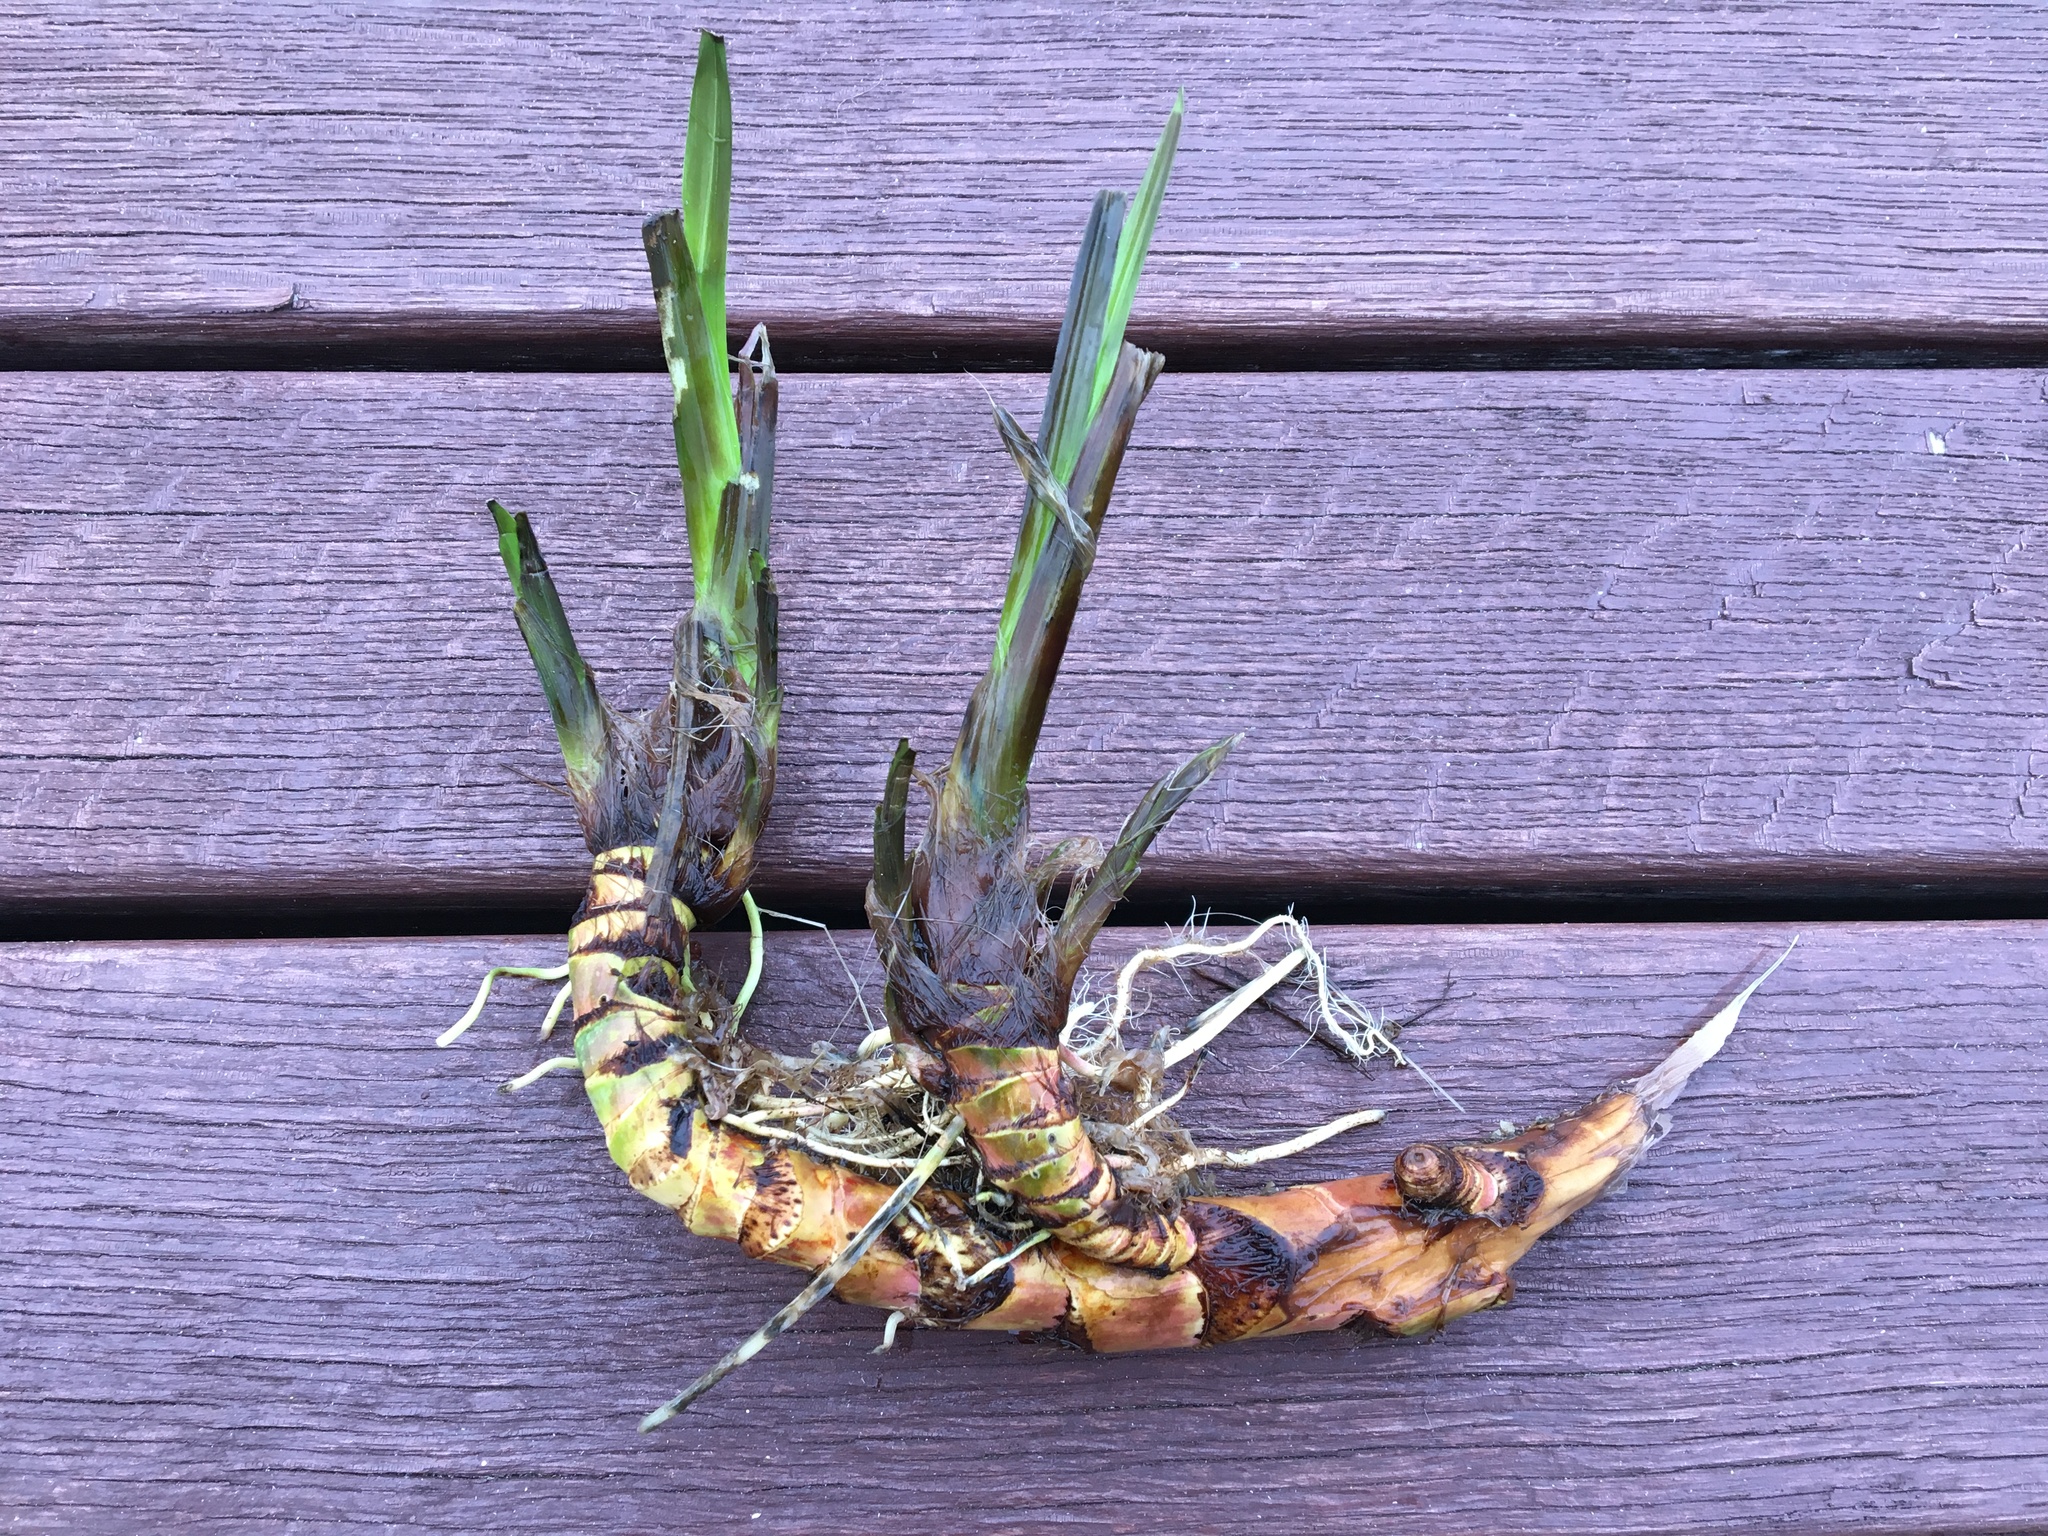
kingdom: Plantae
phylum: Tracheophyta
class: Liliopsida
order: Acorales
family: Acoraceae
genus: Acorus
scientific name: Acorus calamus
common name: Sweet-flag
